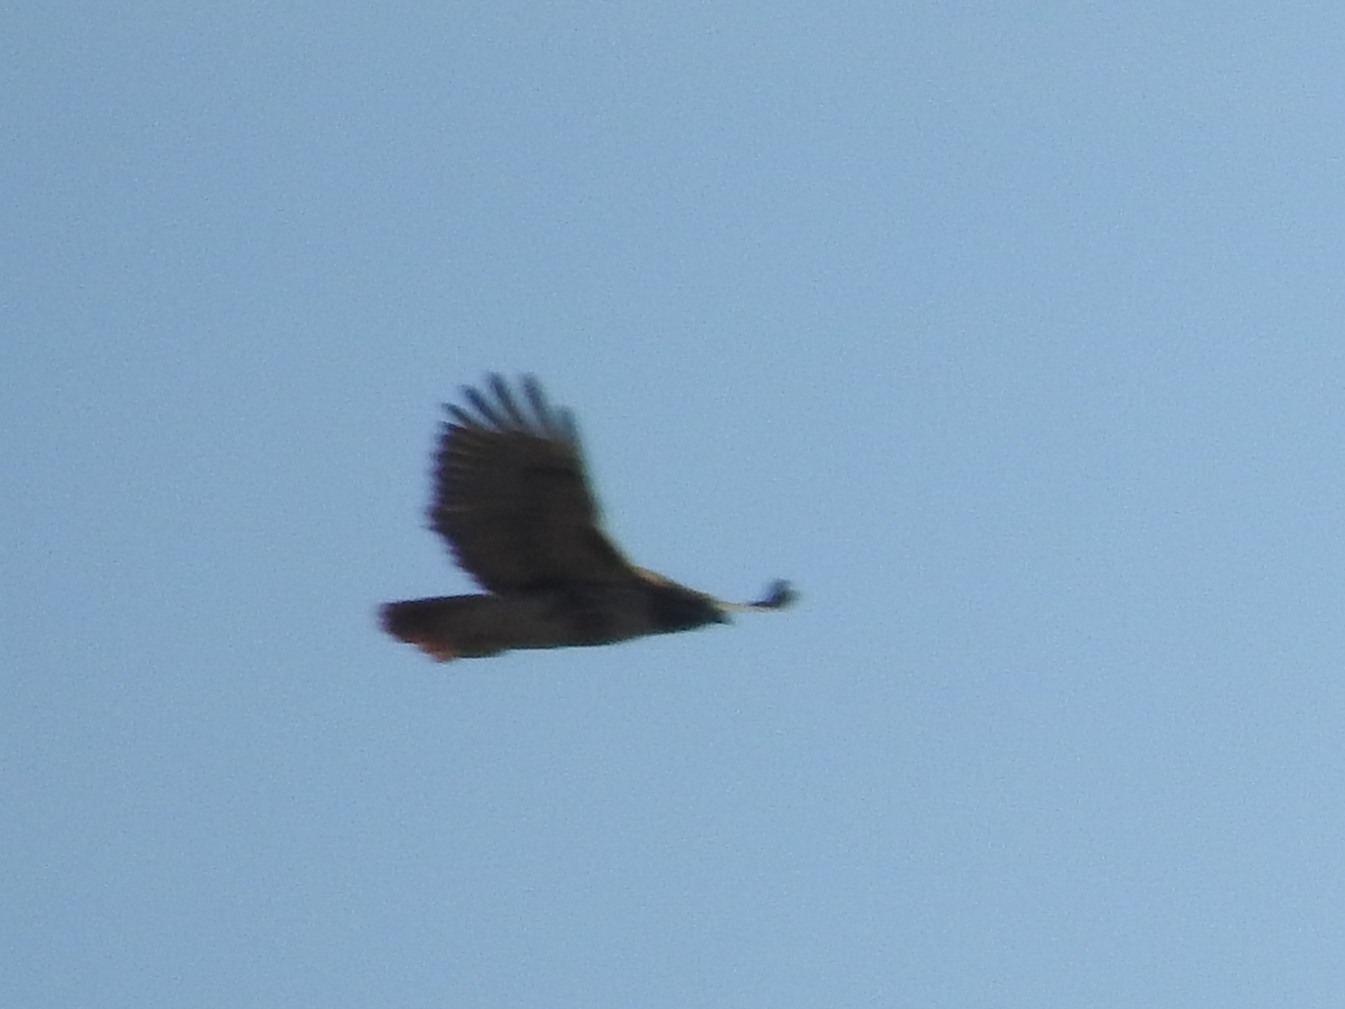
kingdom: Animalia
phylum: Chordata
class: Aves
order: Accipitriformes
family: Accipitridae
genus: Buteo
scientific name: Buteo jamaicensis
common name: Red-tailed hawk
